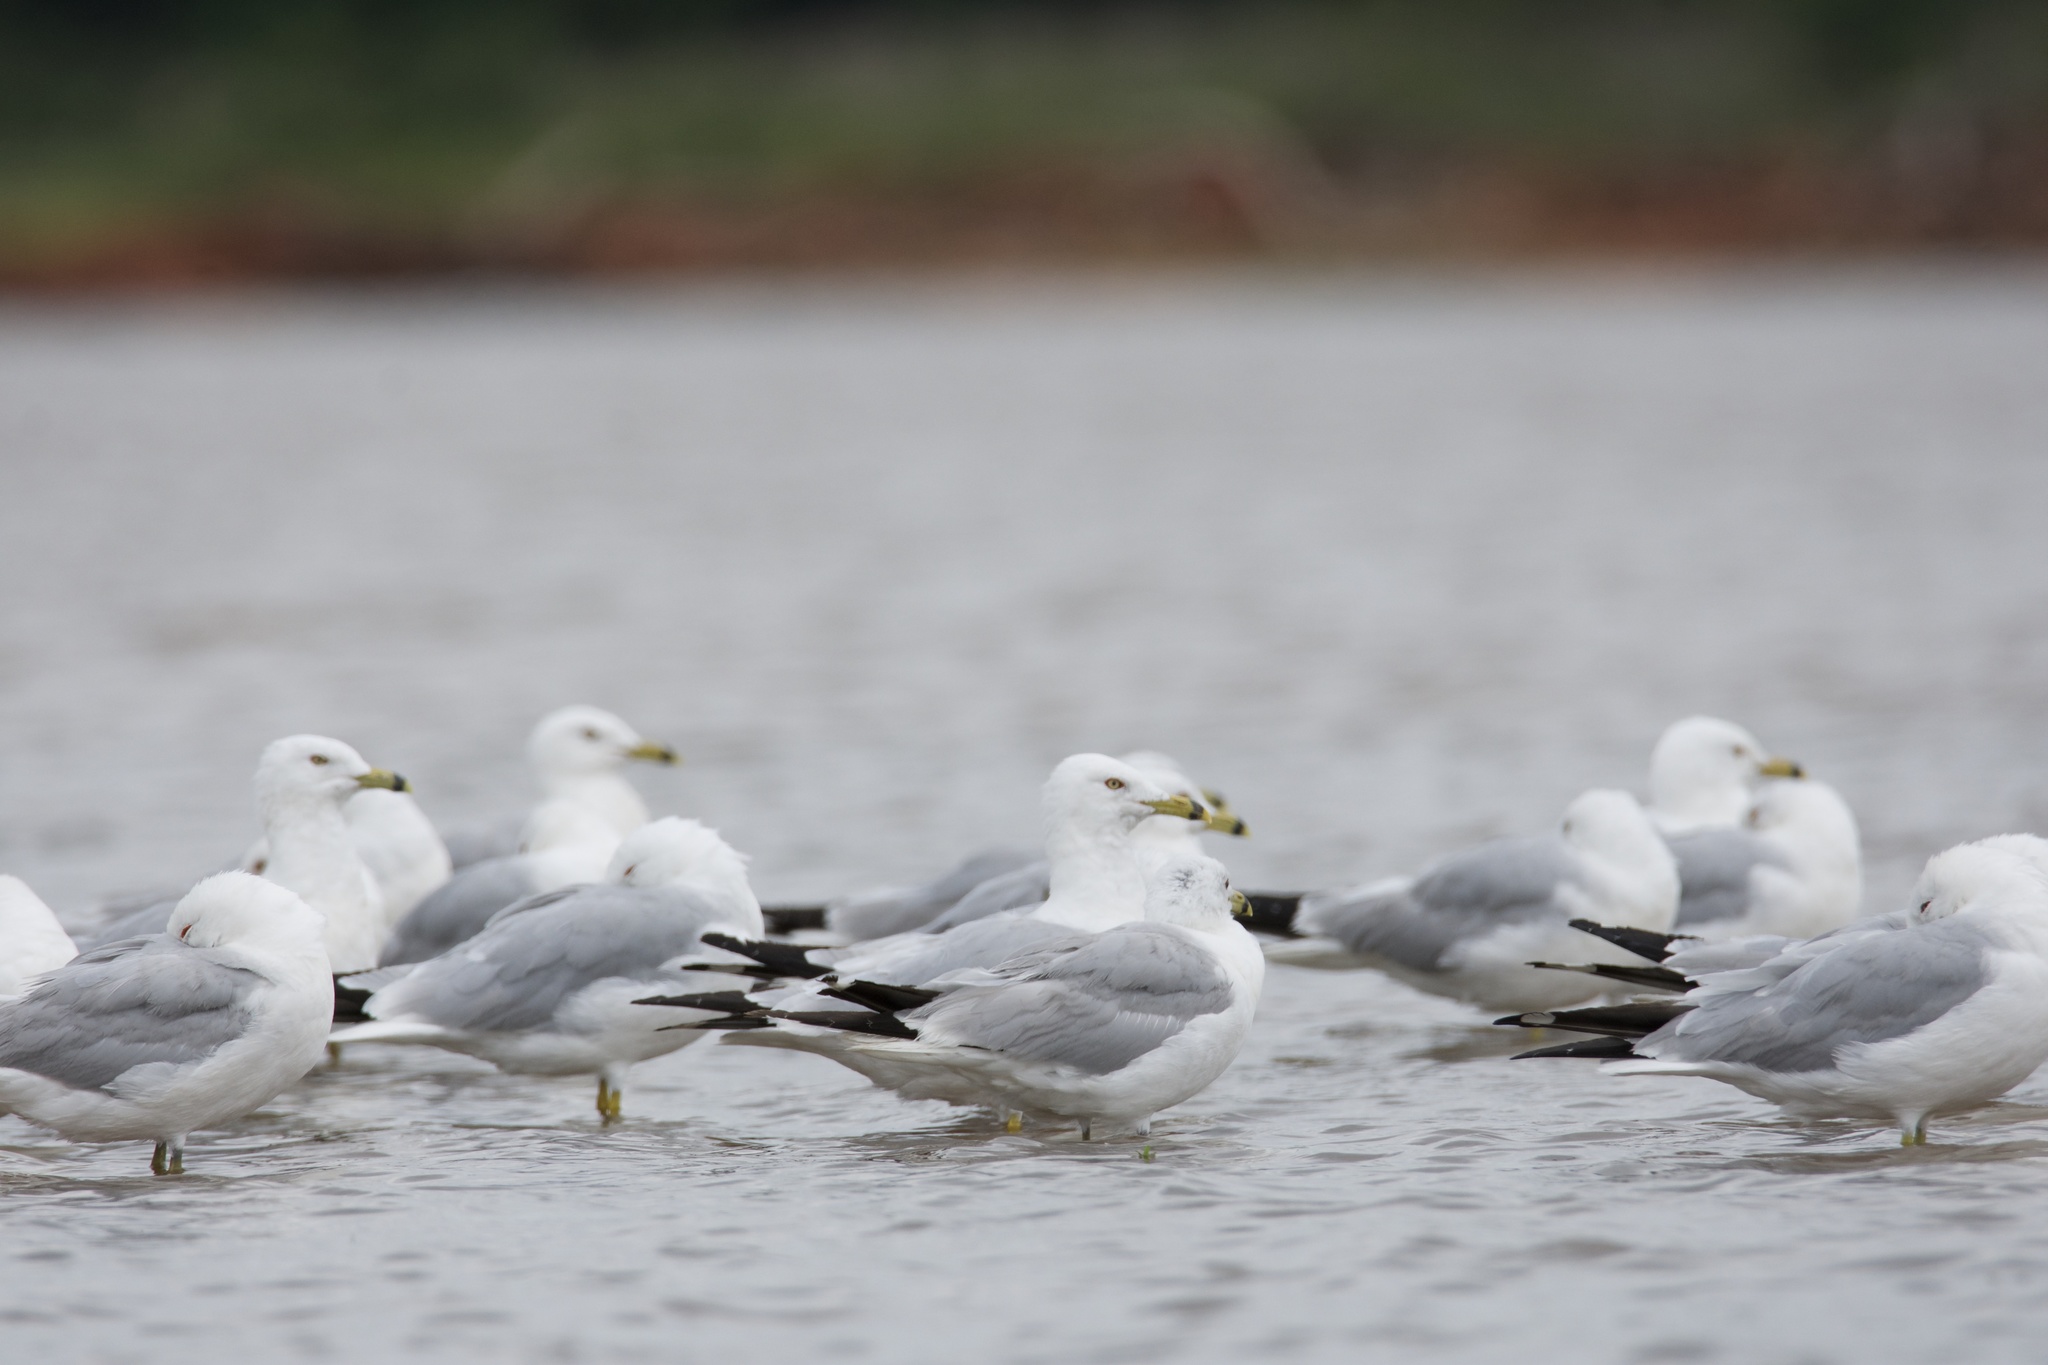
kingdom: Animalia
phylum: Chordata
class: Aves
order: Charadriiformes
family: Laridae
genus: Larus
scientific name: Larus delawarensis
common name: Ring-billed gull
